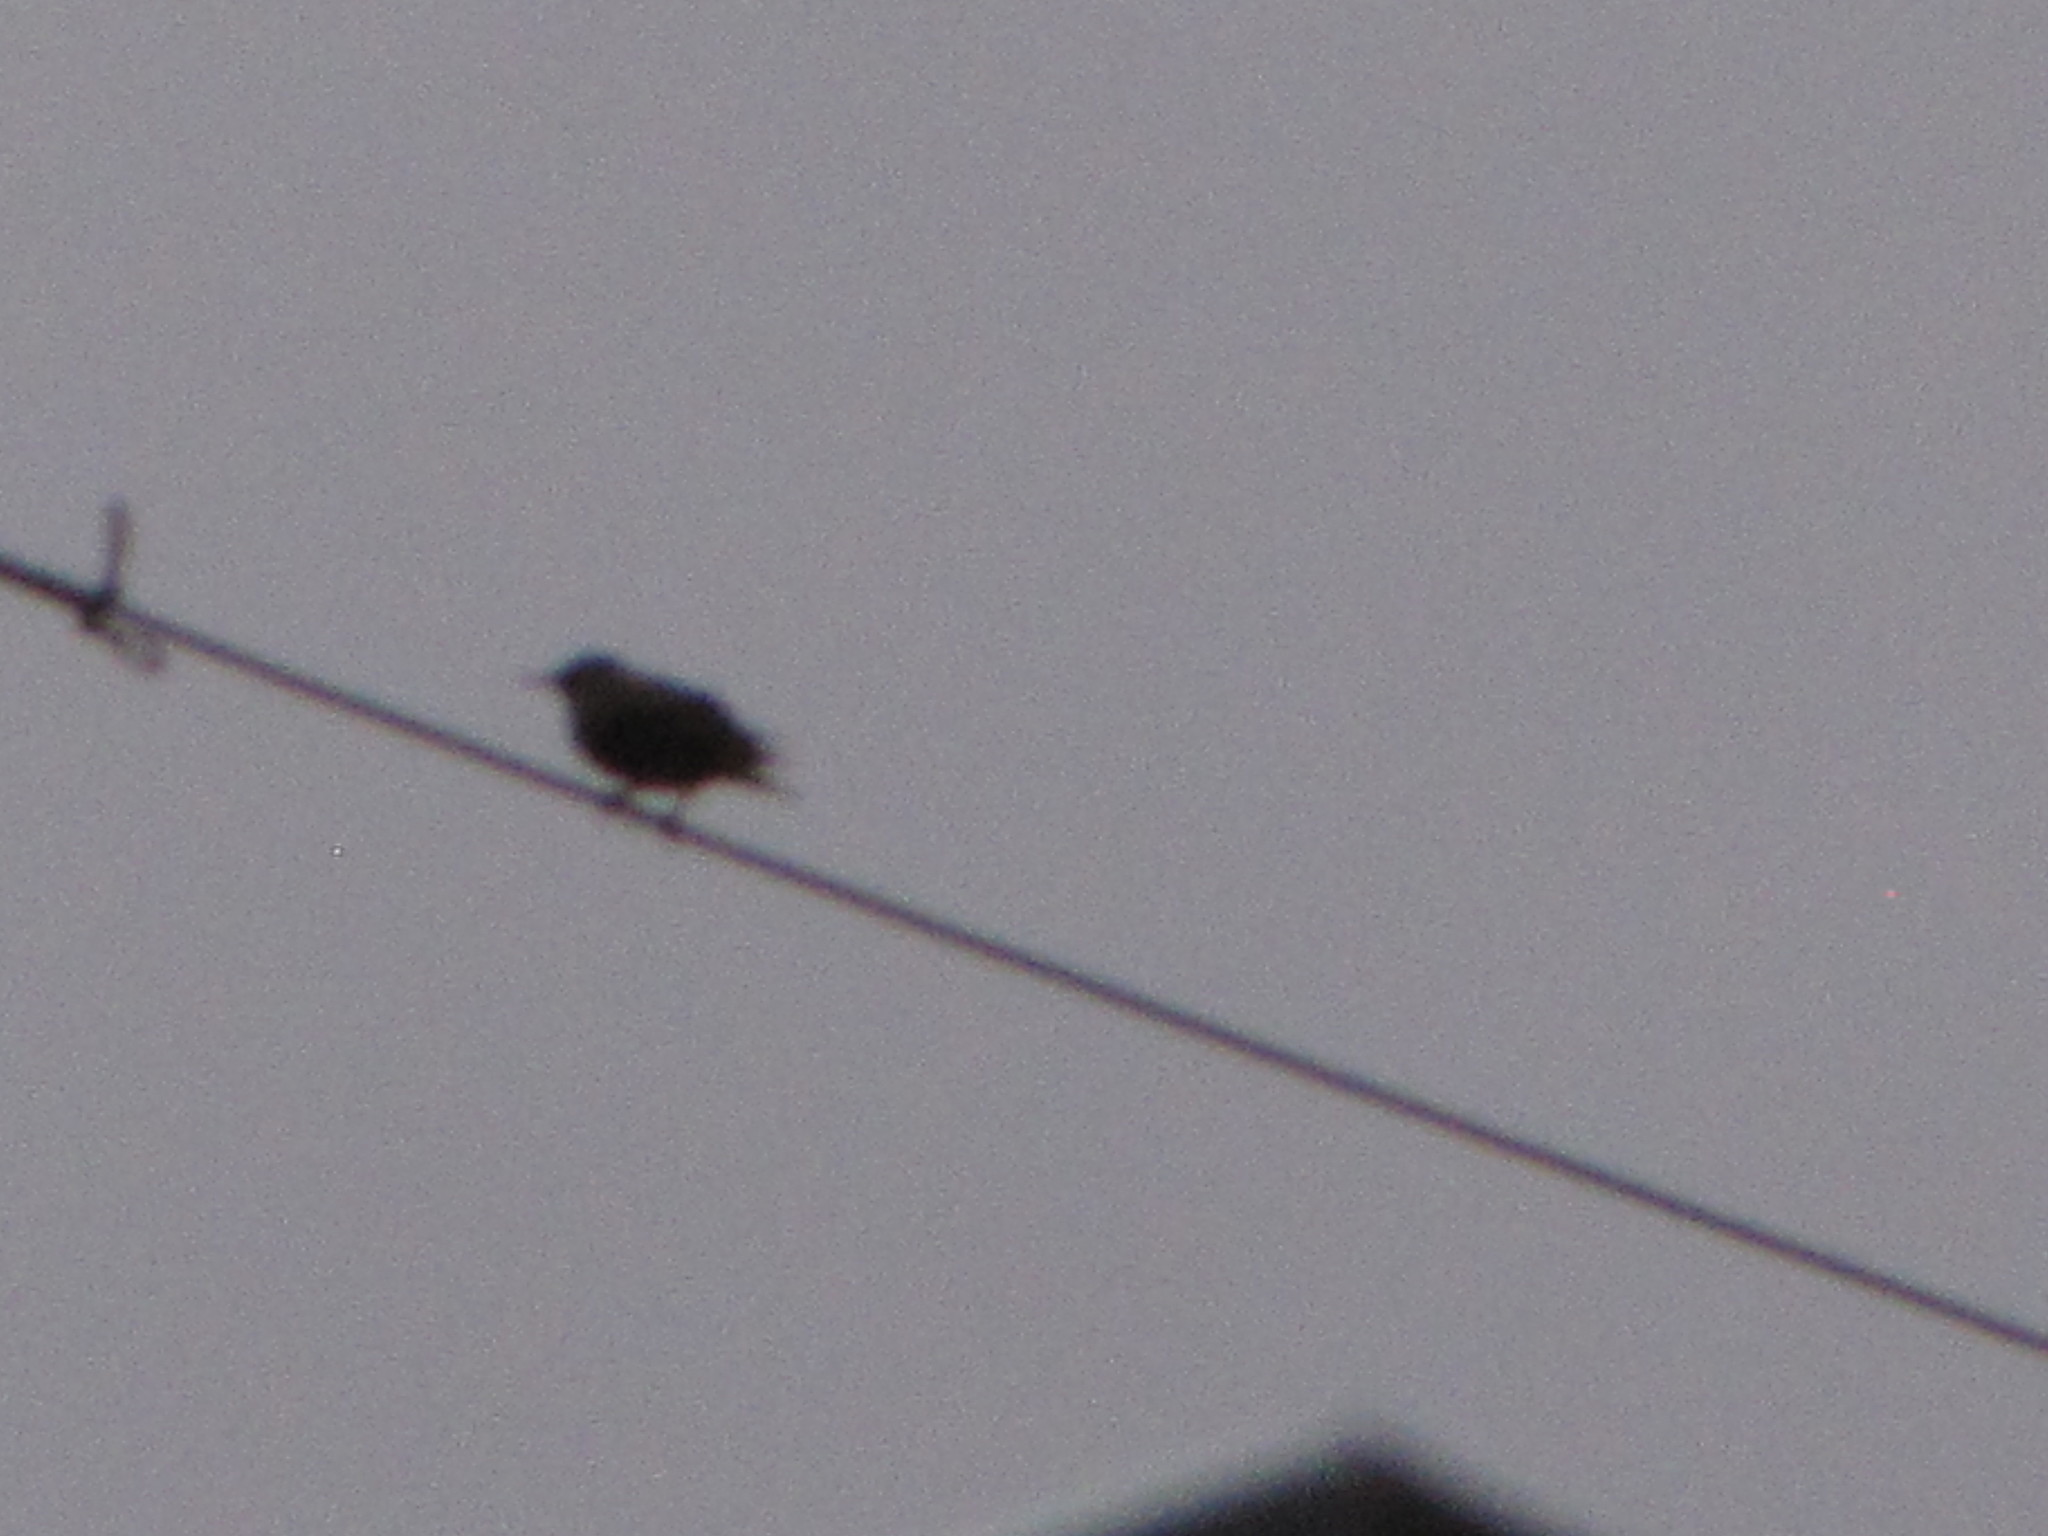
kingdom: Animalia
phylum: Chordata
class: Aves
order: Passeriformes
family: Sturnidae
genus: Sturnus
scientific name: Sturnus vulgaris
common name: Common starling
